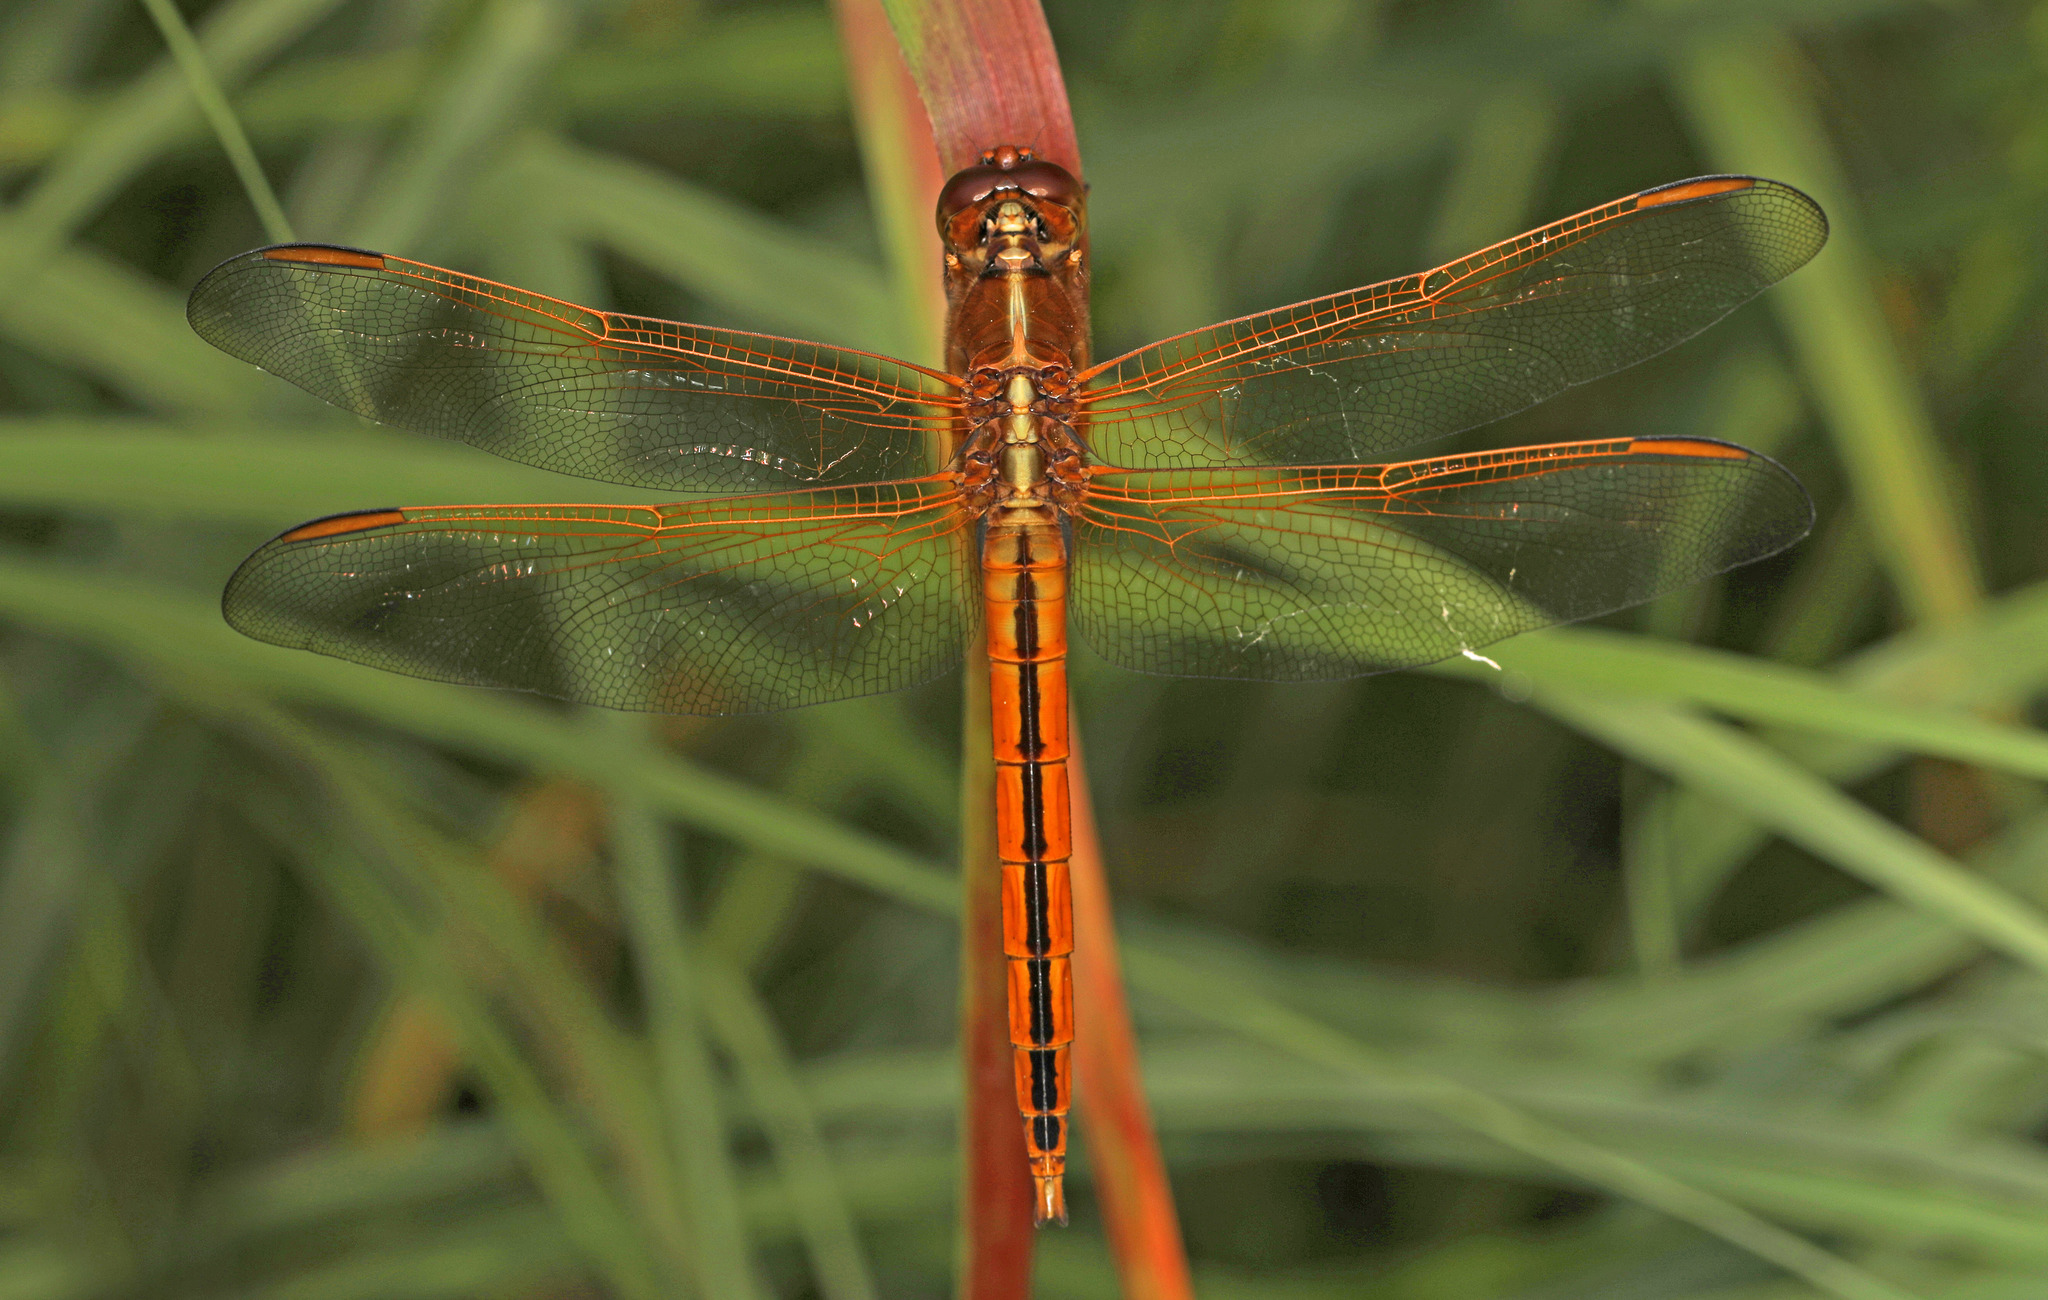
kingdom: Animalia
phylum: Arthropoda
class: Insecta
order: Odonata
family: Libellulidae
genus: Libellula
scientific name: Libellula needhami
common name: Needham's skimmer
